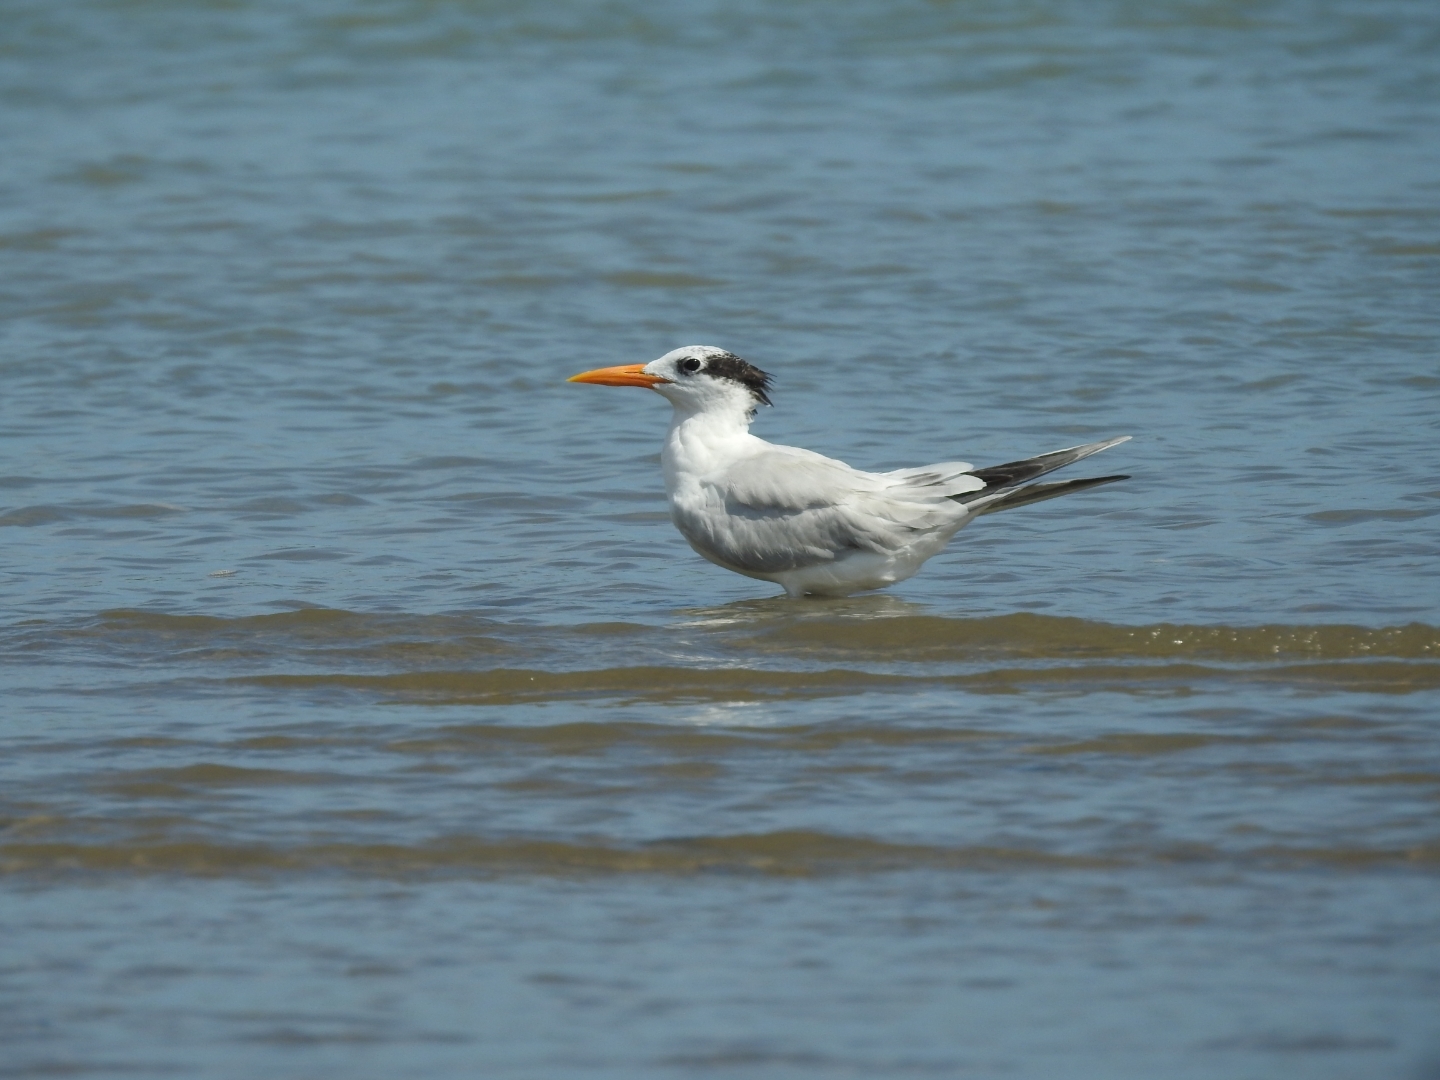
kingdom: Animalia
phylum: Chordata
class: Aves
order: Charadriiformes
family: Laridae
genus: Thalasseus
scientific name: Thalasseus maximus
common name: Royal tern
